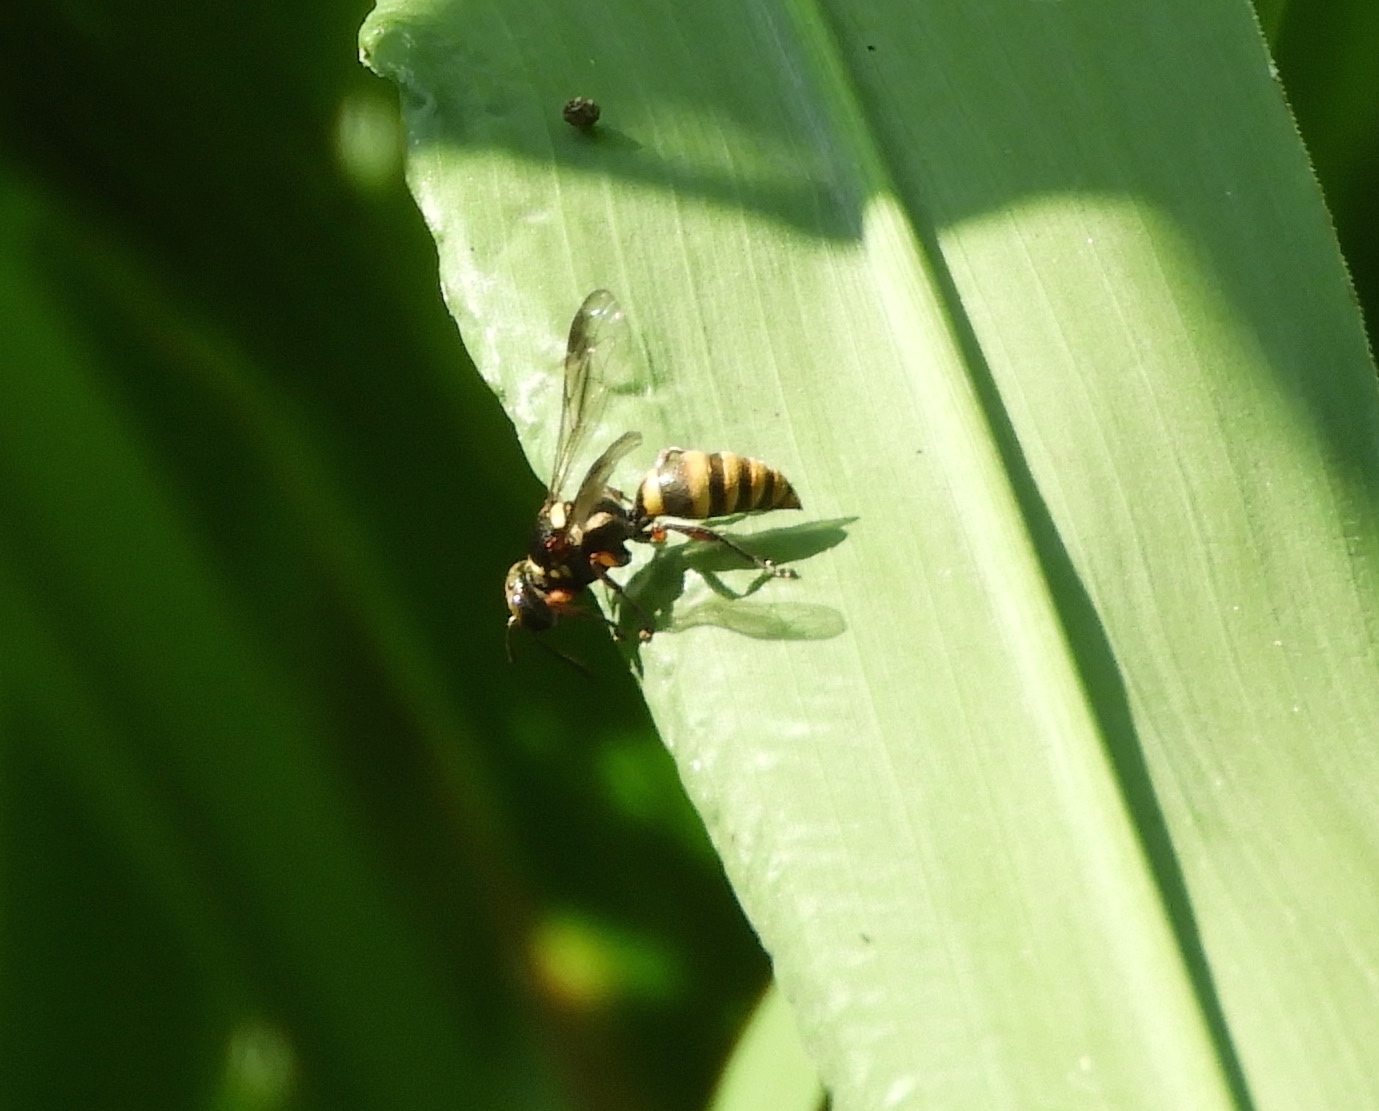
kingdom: Animalia
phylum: Arthropoda
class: Insecta
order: Hymenoptera
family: Crabronidae
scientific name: Crabronidae
